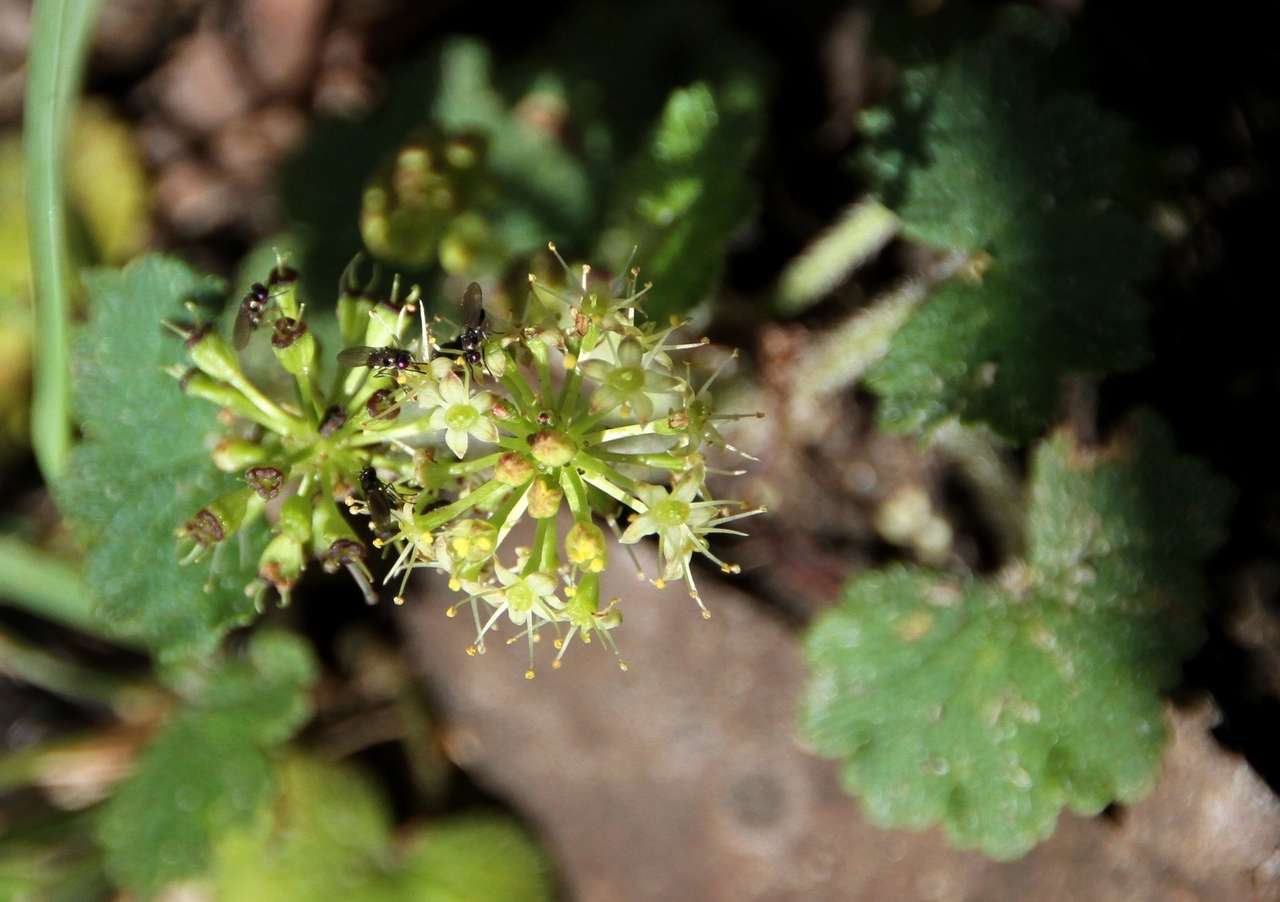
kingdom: Animalia
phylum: Arthropoda
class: Insecta
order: Diptera
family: Ephydridae
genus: Hydrellia
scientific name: Hydrellia tritici
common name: Shore fly
